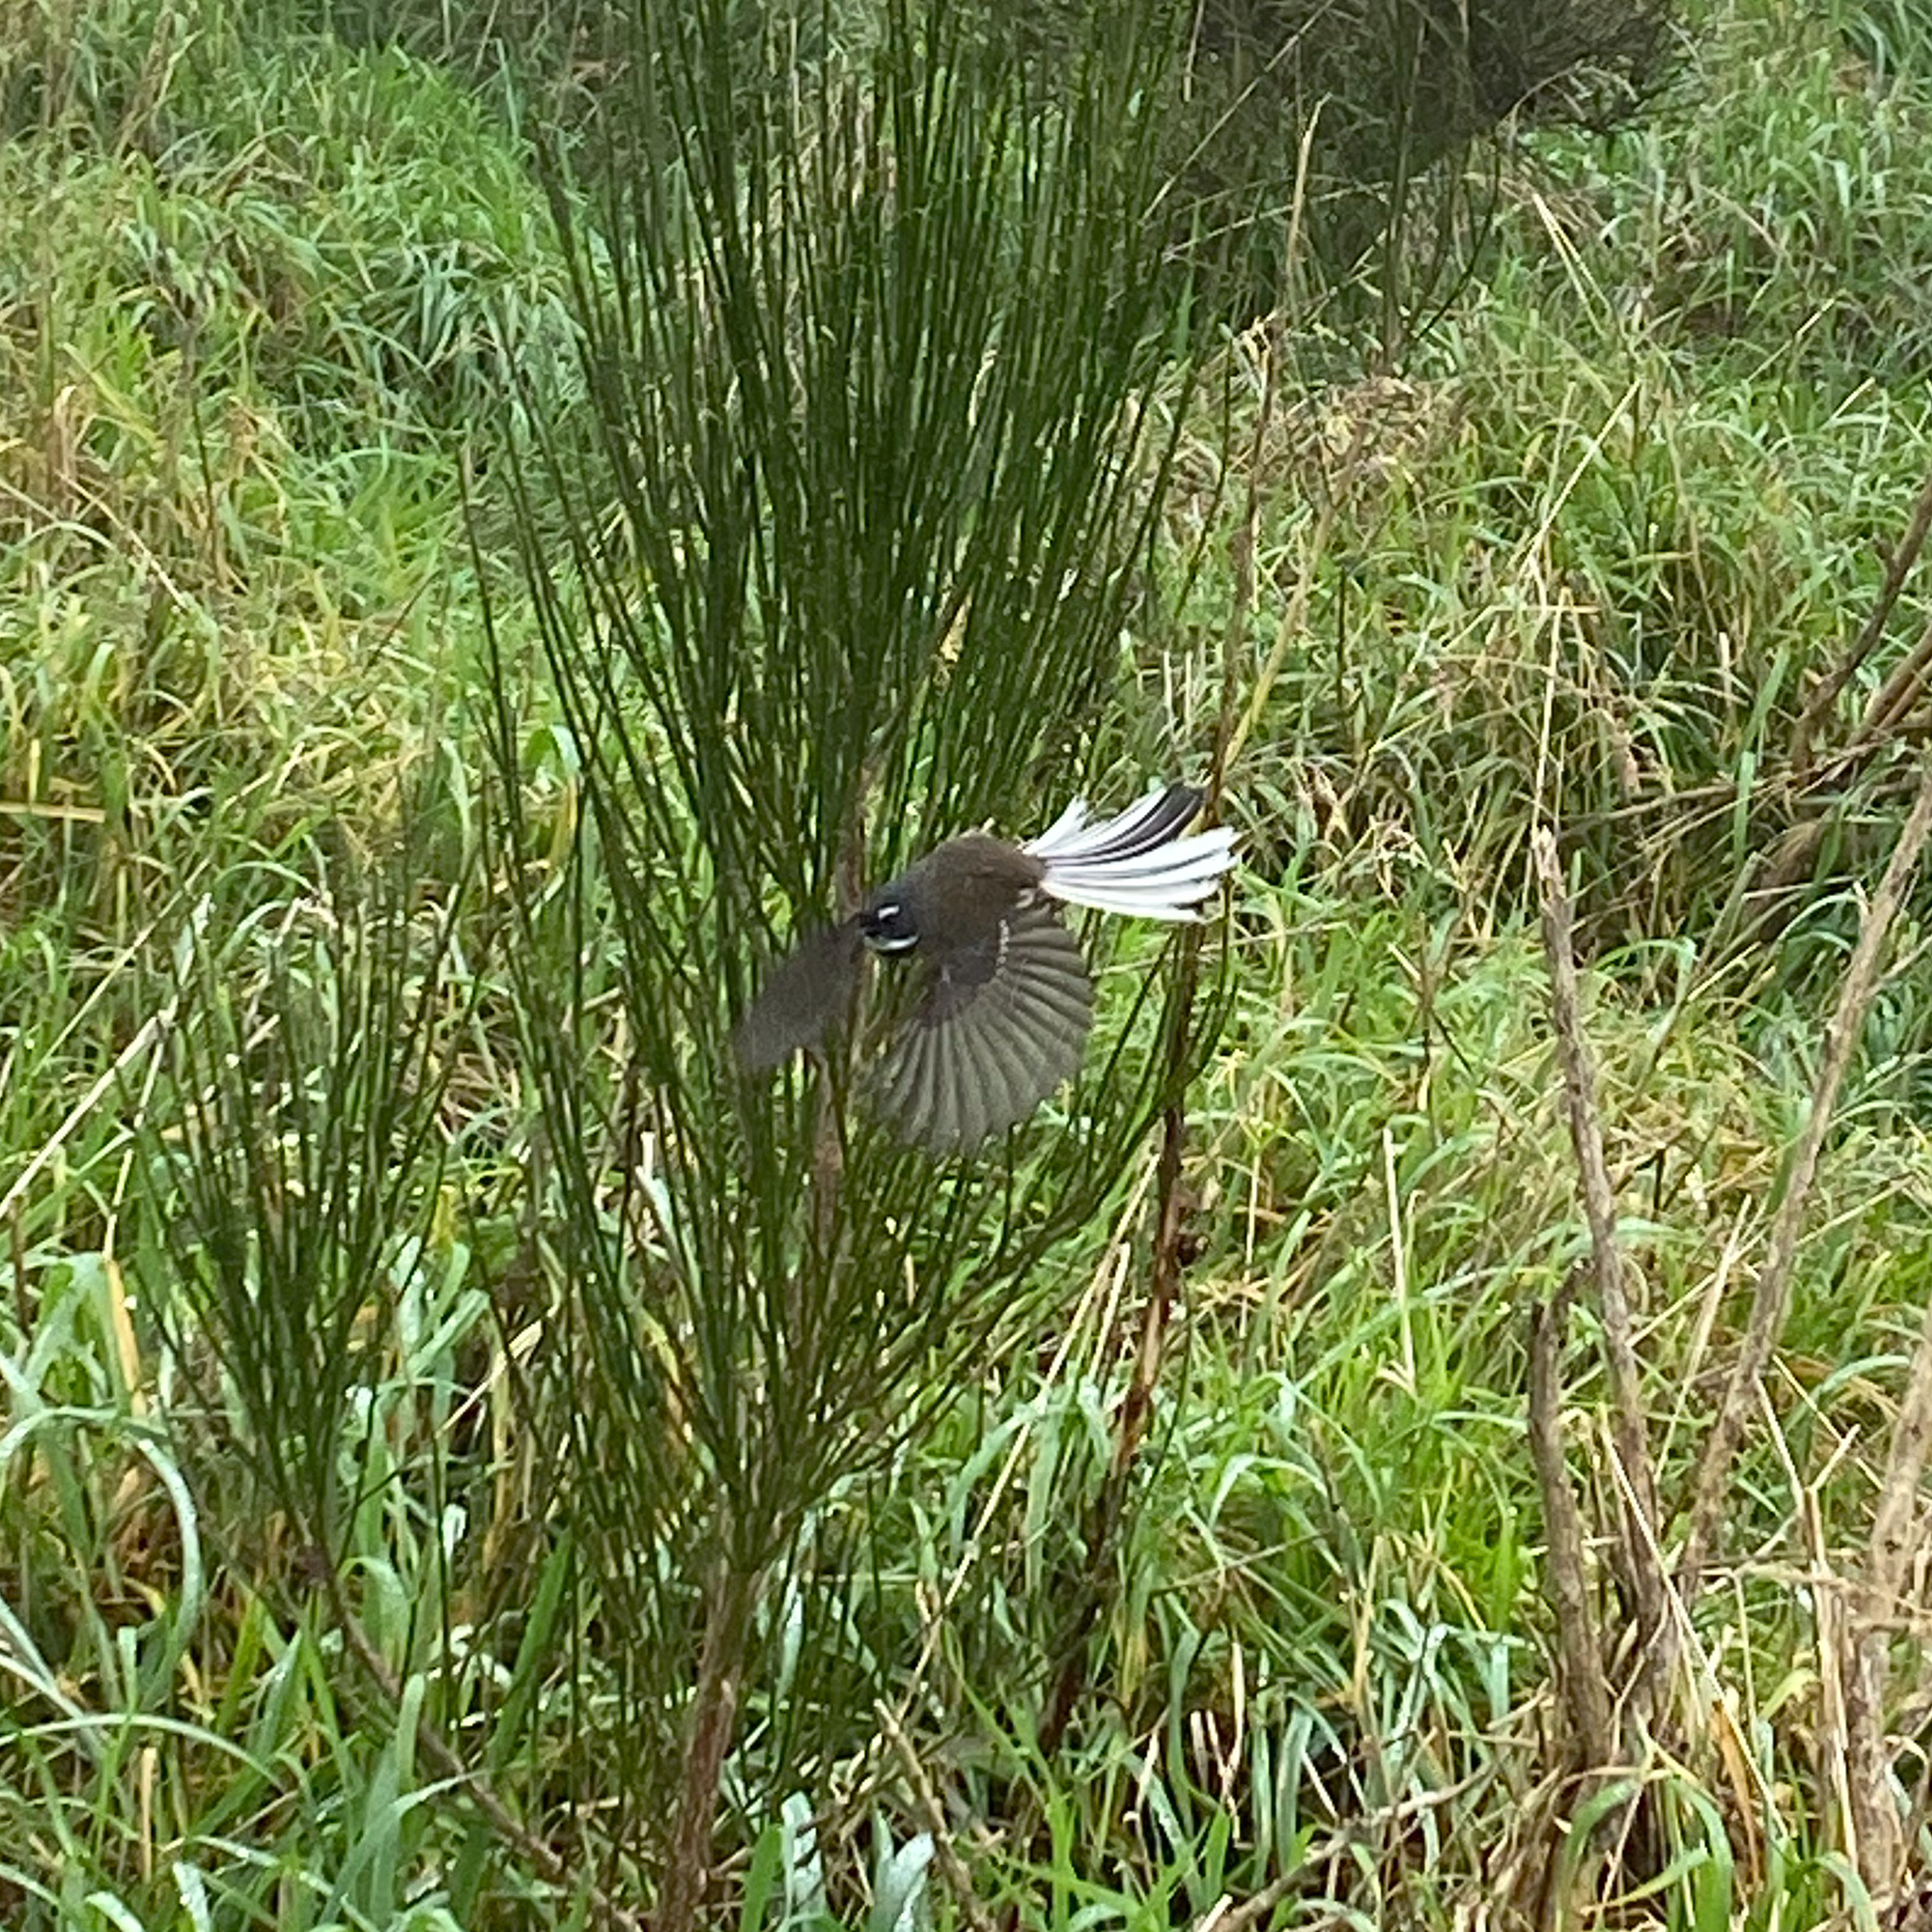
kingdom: Animalia
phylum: Chordata
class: Aves
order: Passeriformes
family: Rhipiduridae
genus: Rhipidura
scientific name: Rhipidura fuliginosa
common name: New zealand fantail
